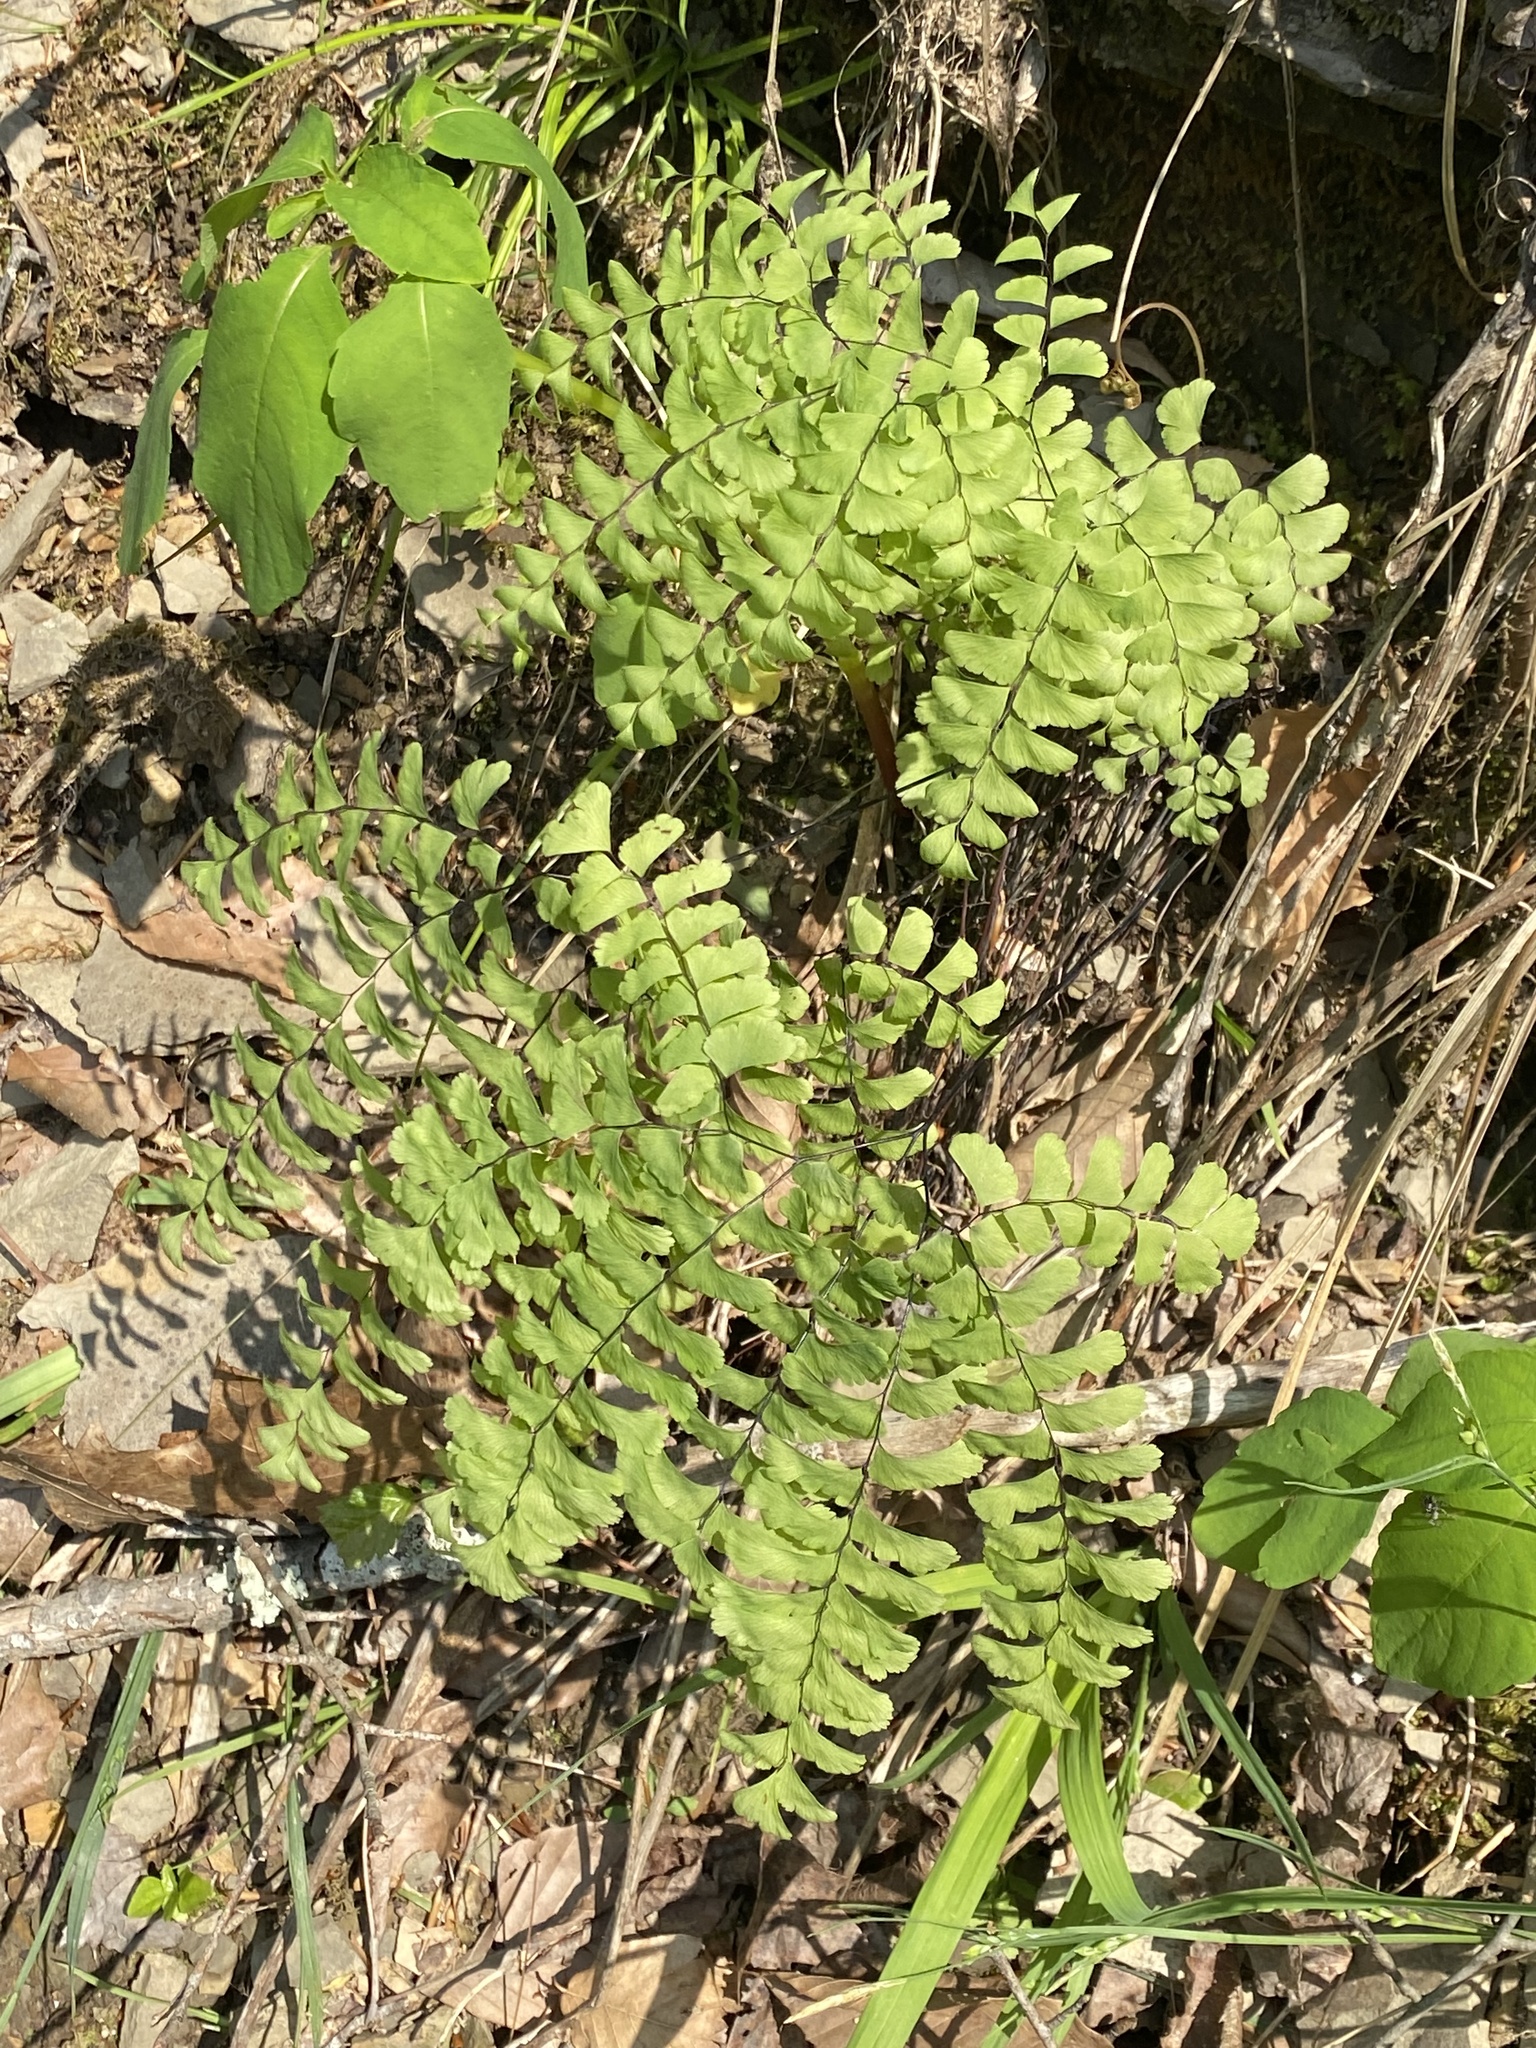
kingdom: Plantae
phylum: Tracheophyta
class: Polypodiopsida
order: Polypodiales
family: Pteridaceae
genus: Adiantum
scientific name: Adiantum pedatum
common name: Five-finger fern
